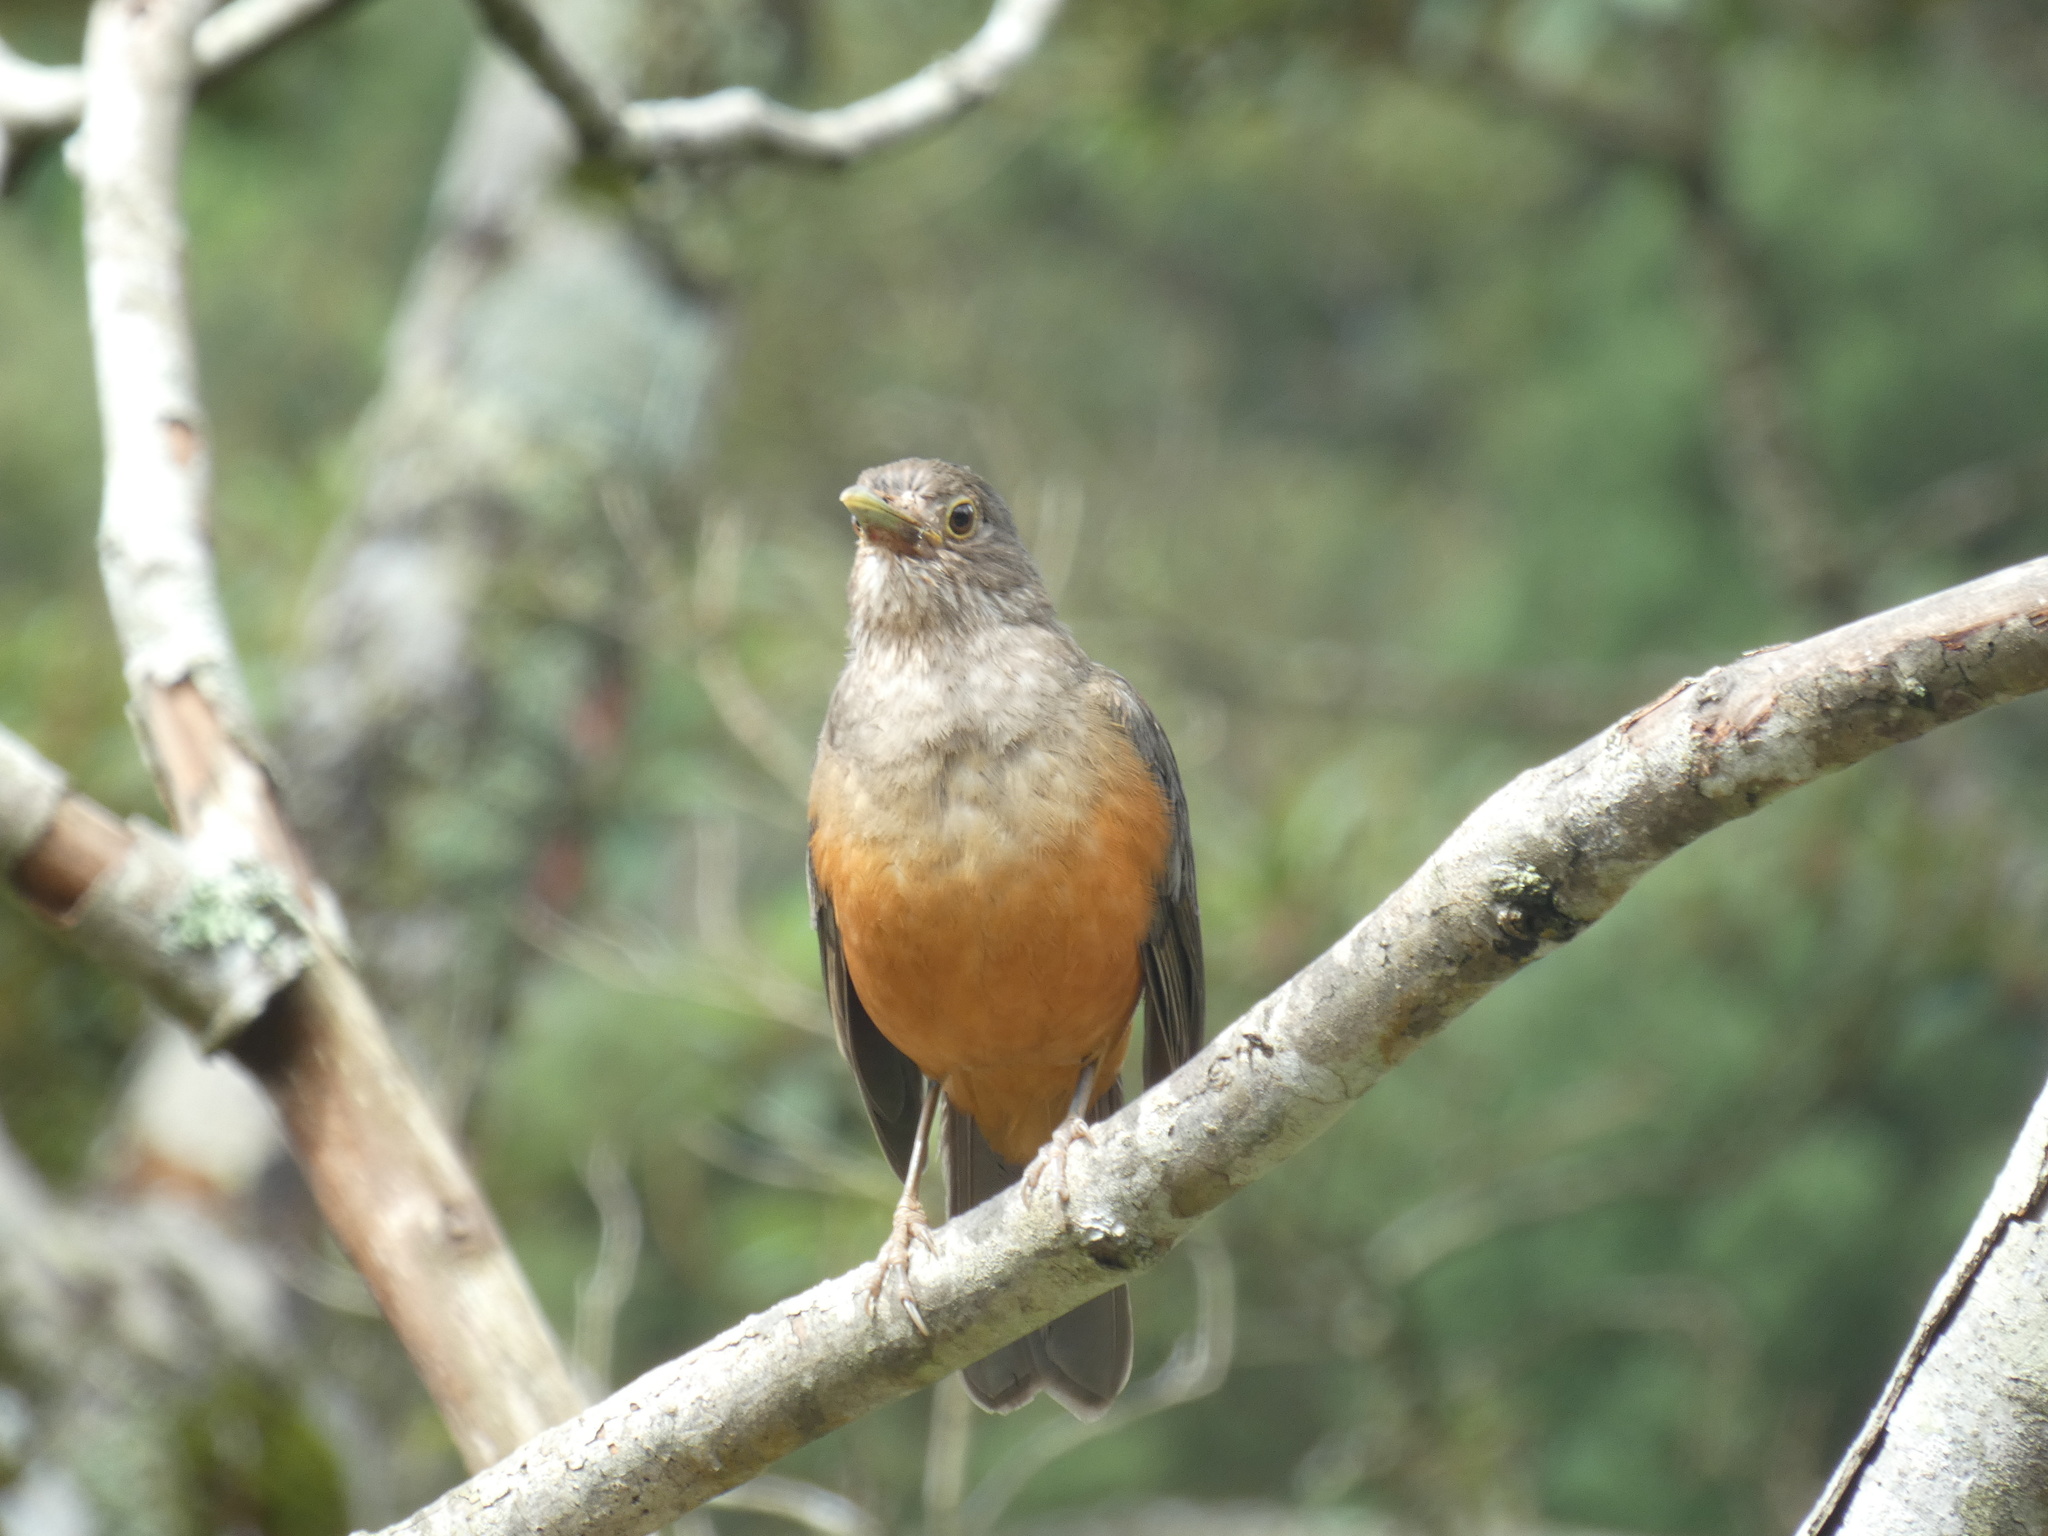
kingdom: Animalia
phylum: Chordata
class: Aves
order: Passeriformes
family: Turdidae
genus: Turdus
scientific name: Turdus rufiventris
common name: Rufous-bellied thrush
